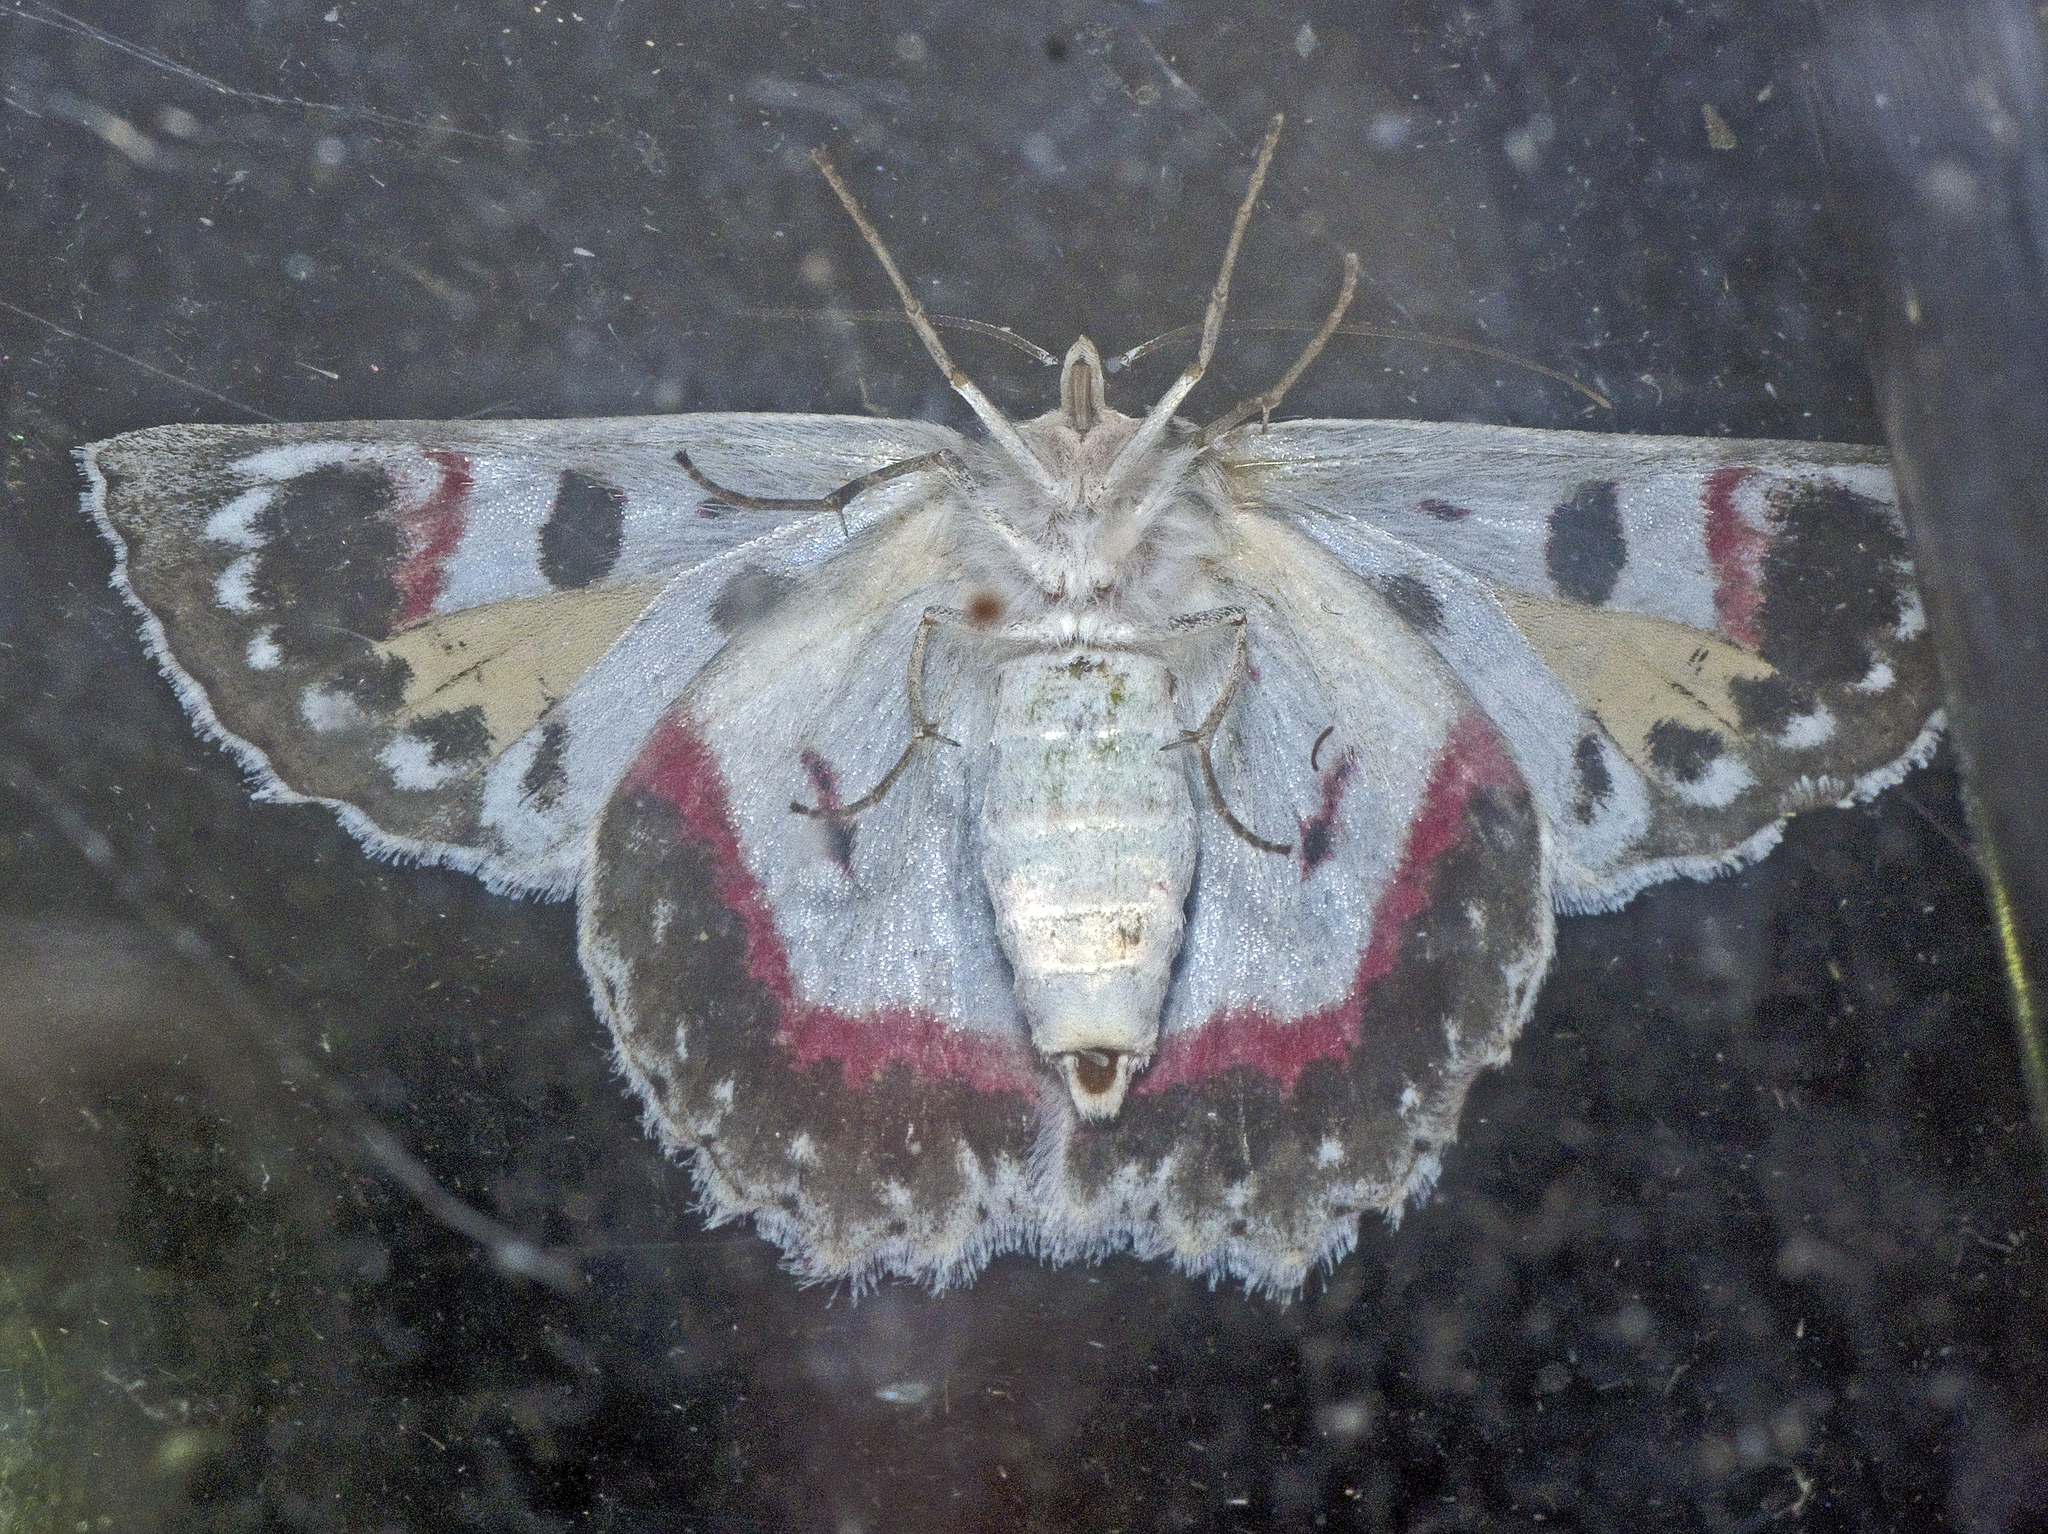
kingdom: Animalia
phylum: Arthropoda
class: Insecta
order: Lepidoptera
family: Geometridae
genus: Crypsiphona
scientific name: Crypsiphona ocultaria
